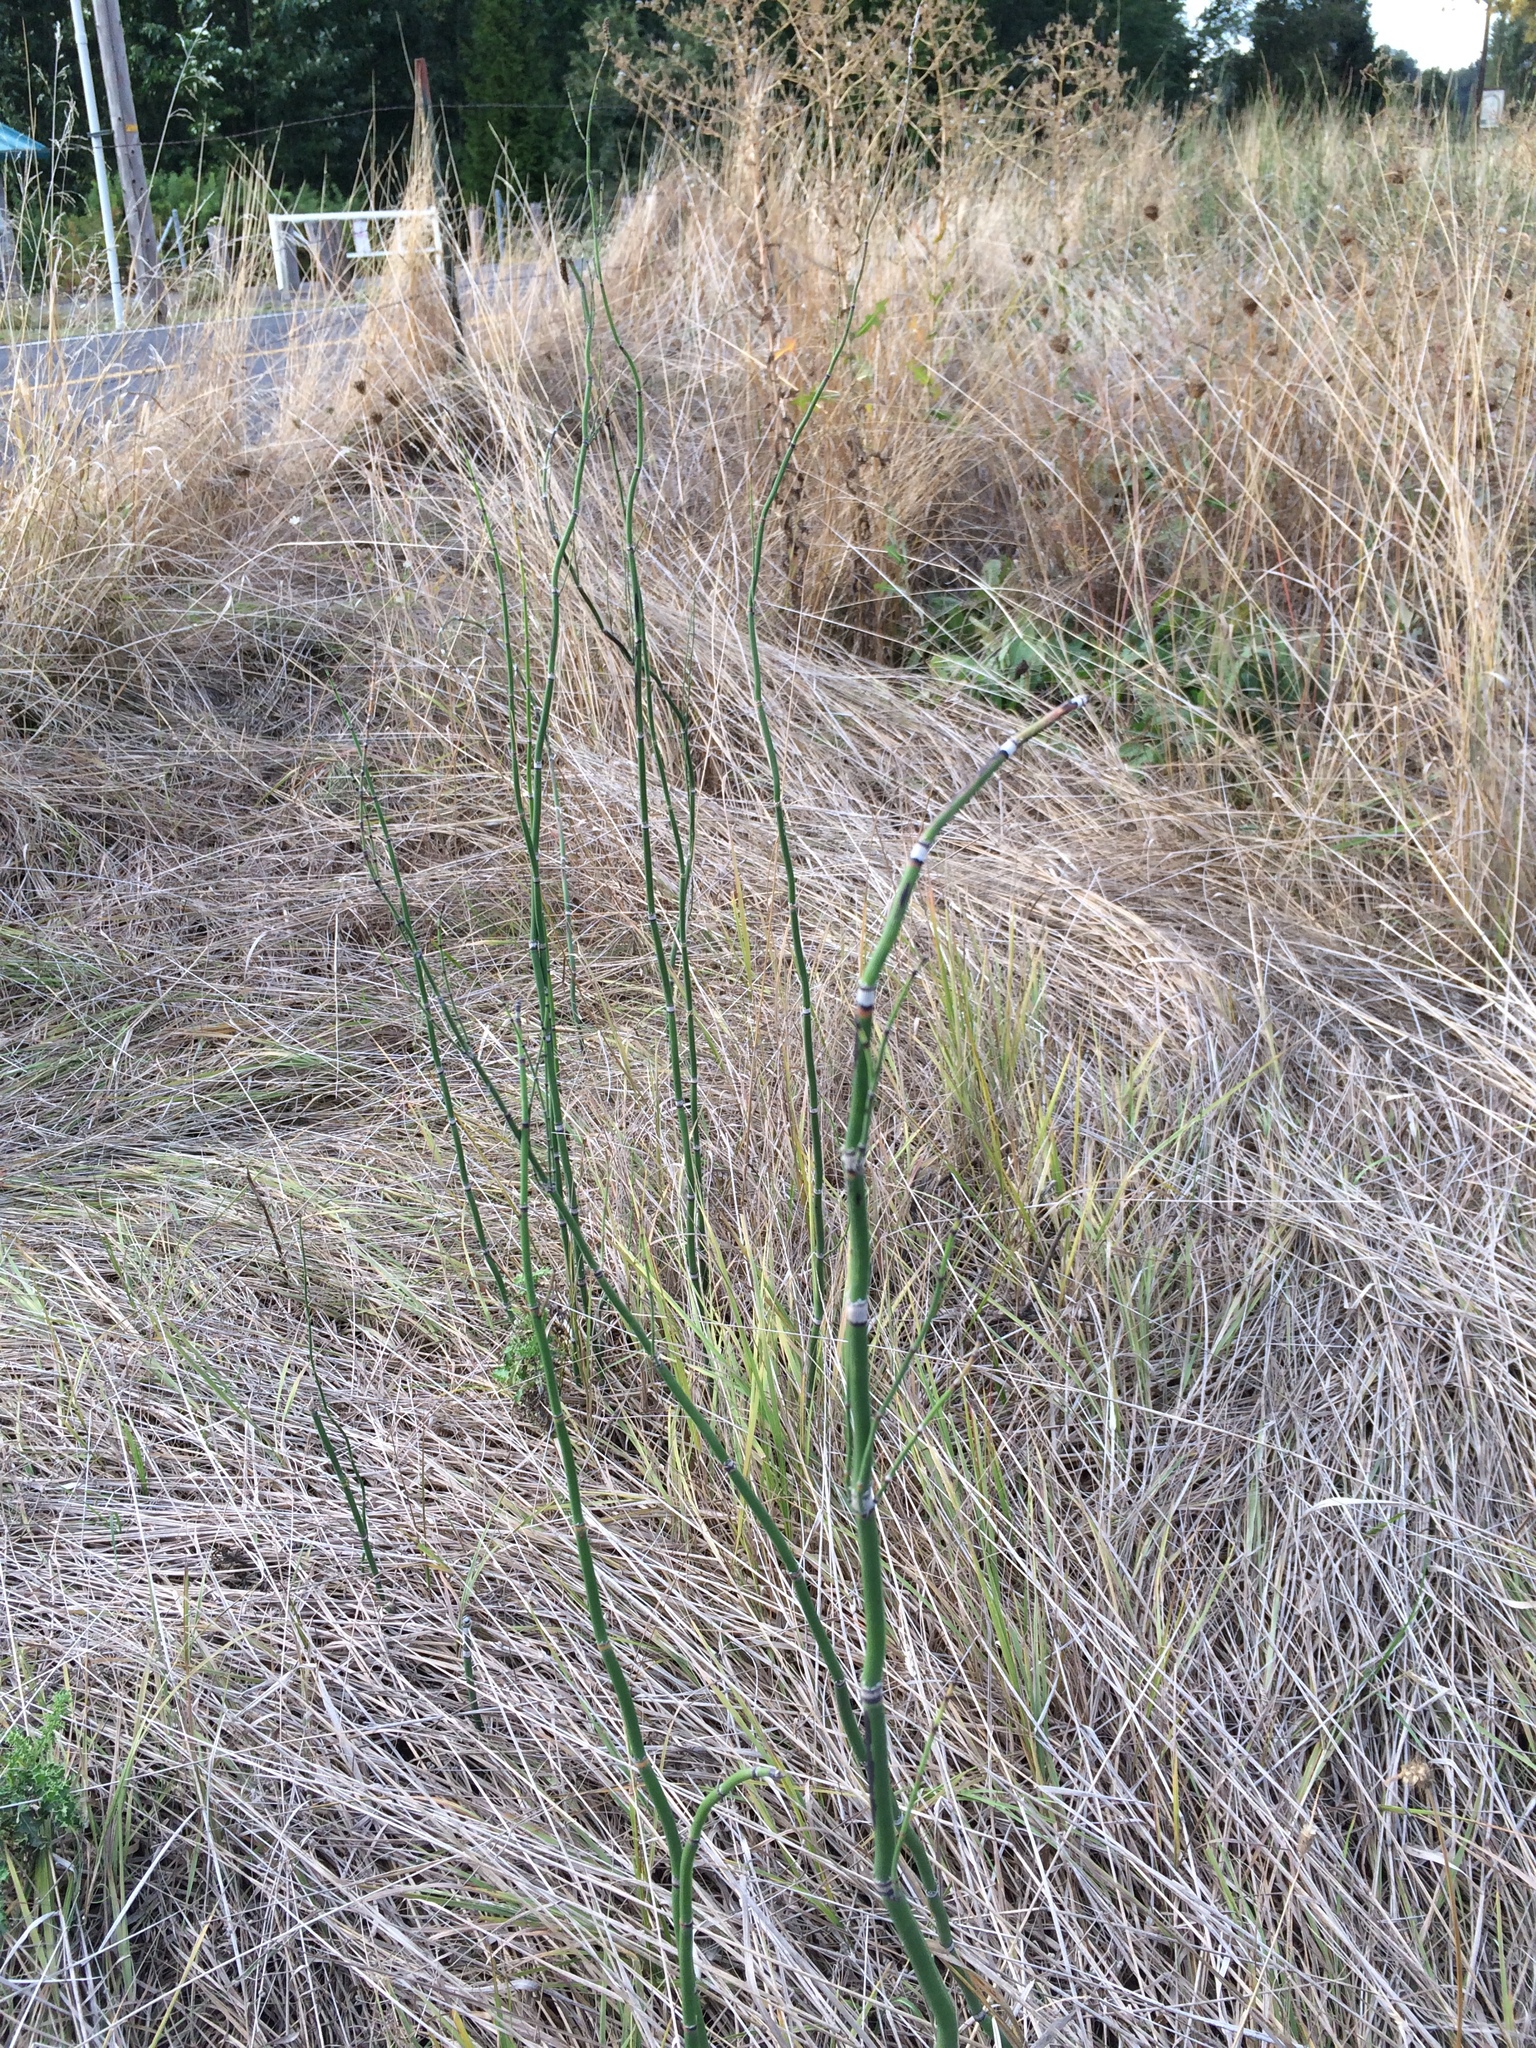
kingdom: Plantae
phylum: Tracheophyta
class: Polypodiopsida
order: Equisetales
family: Equisetaceae
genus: Equisetum
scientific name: Equisetum hyemale
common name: Rough horsetail
